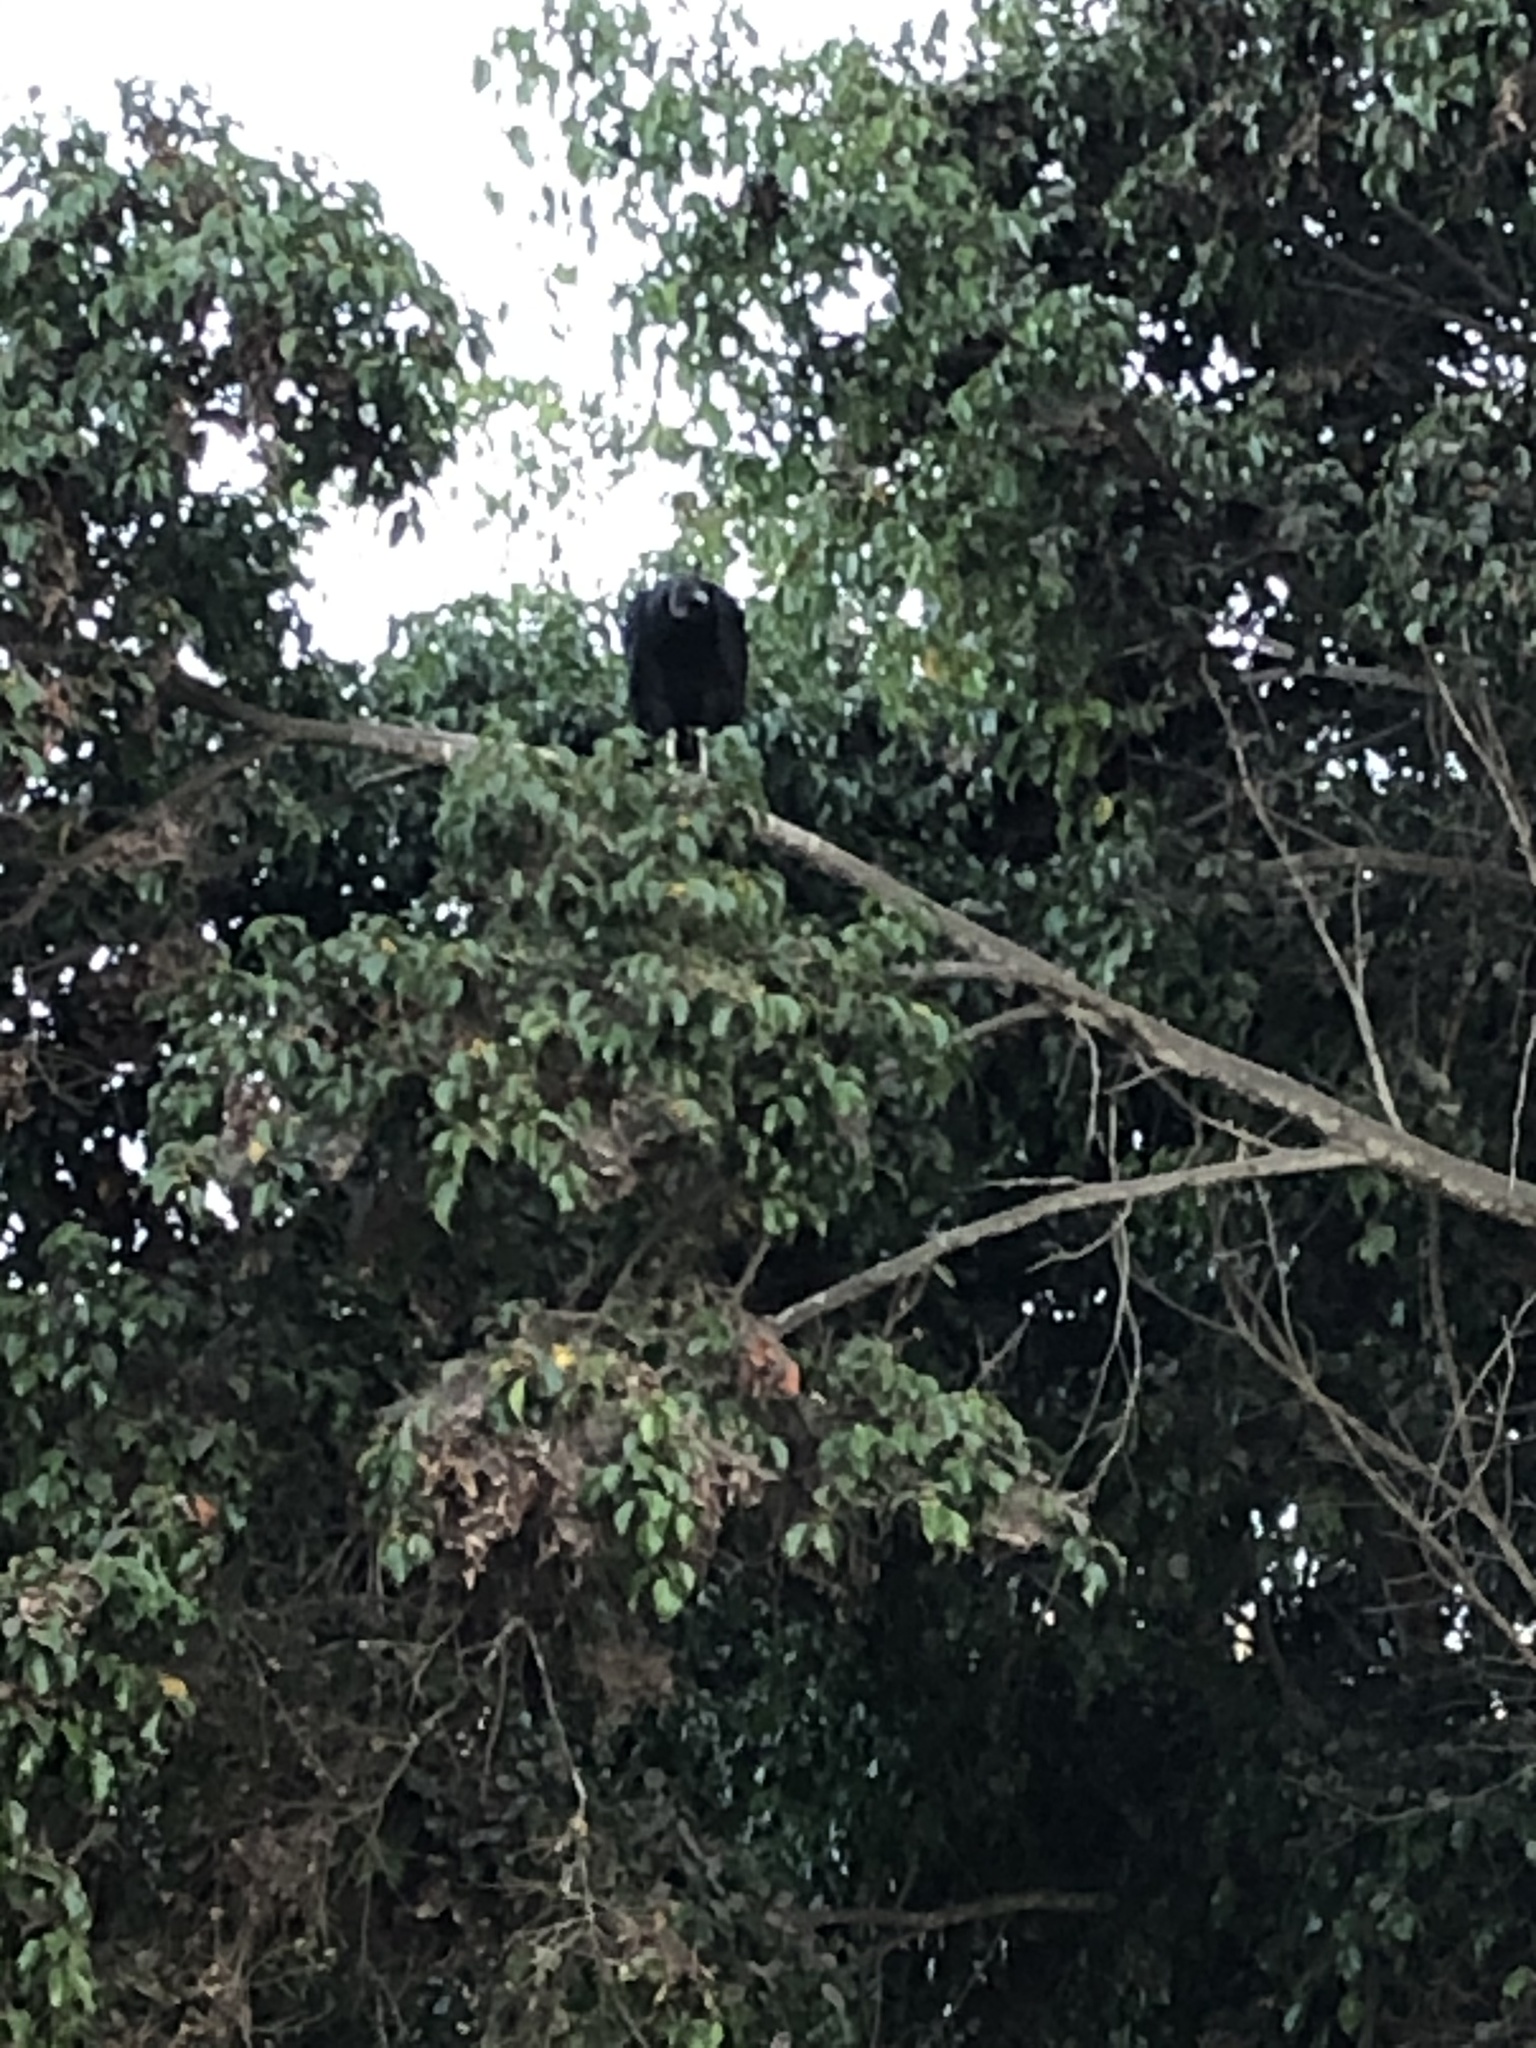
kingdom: Animalia
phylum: Chordata
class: Aves
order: Accipitriformes
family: Cathartidae
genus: Coragyps
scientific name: Coragyps atratus
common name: Black vulture
